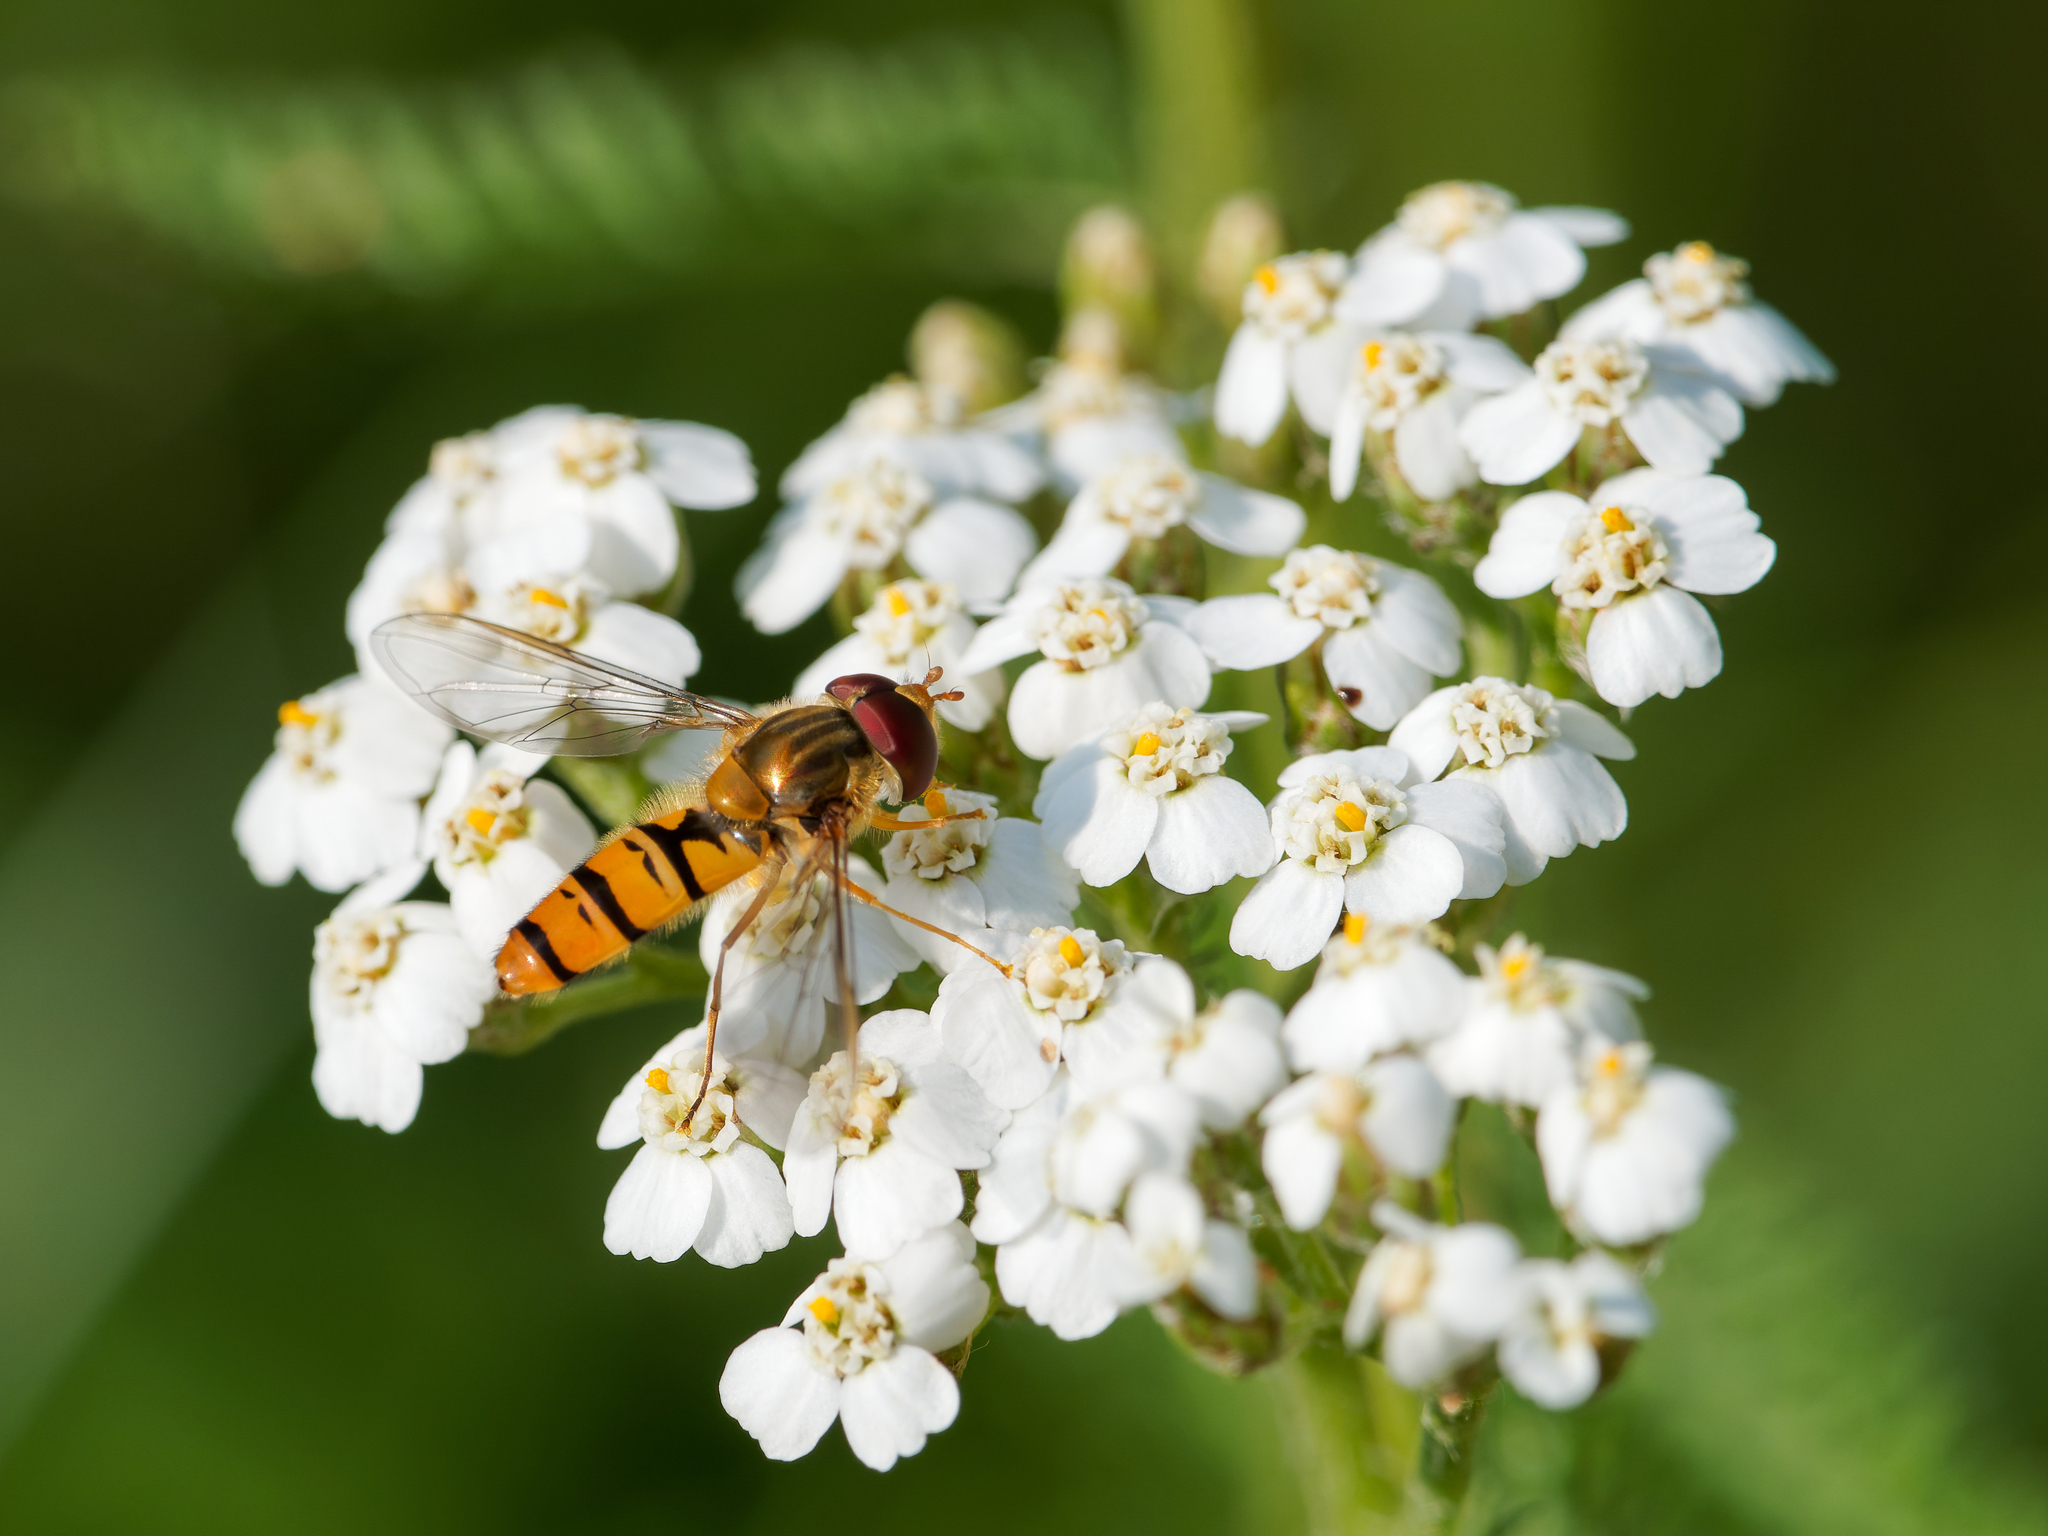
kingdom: Animalia
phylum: Arthropoda
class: Insecta
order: Diptera
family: Syrphidae
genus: Episyrphus
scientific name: Episyrphus balteatus
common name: Marmalade hoverfly
